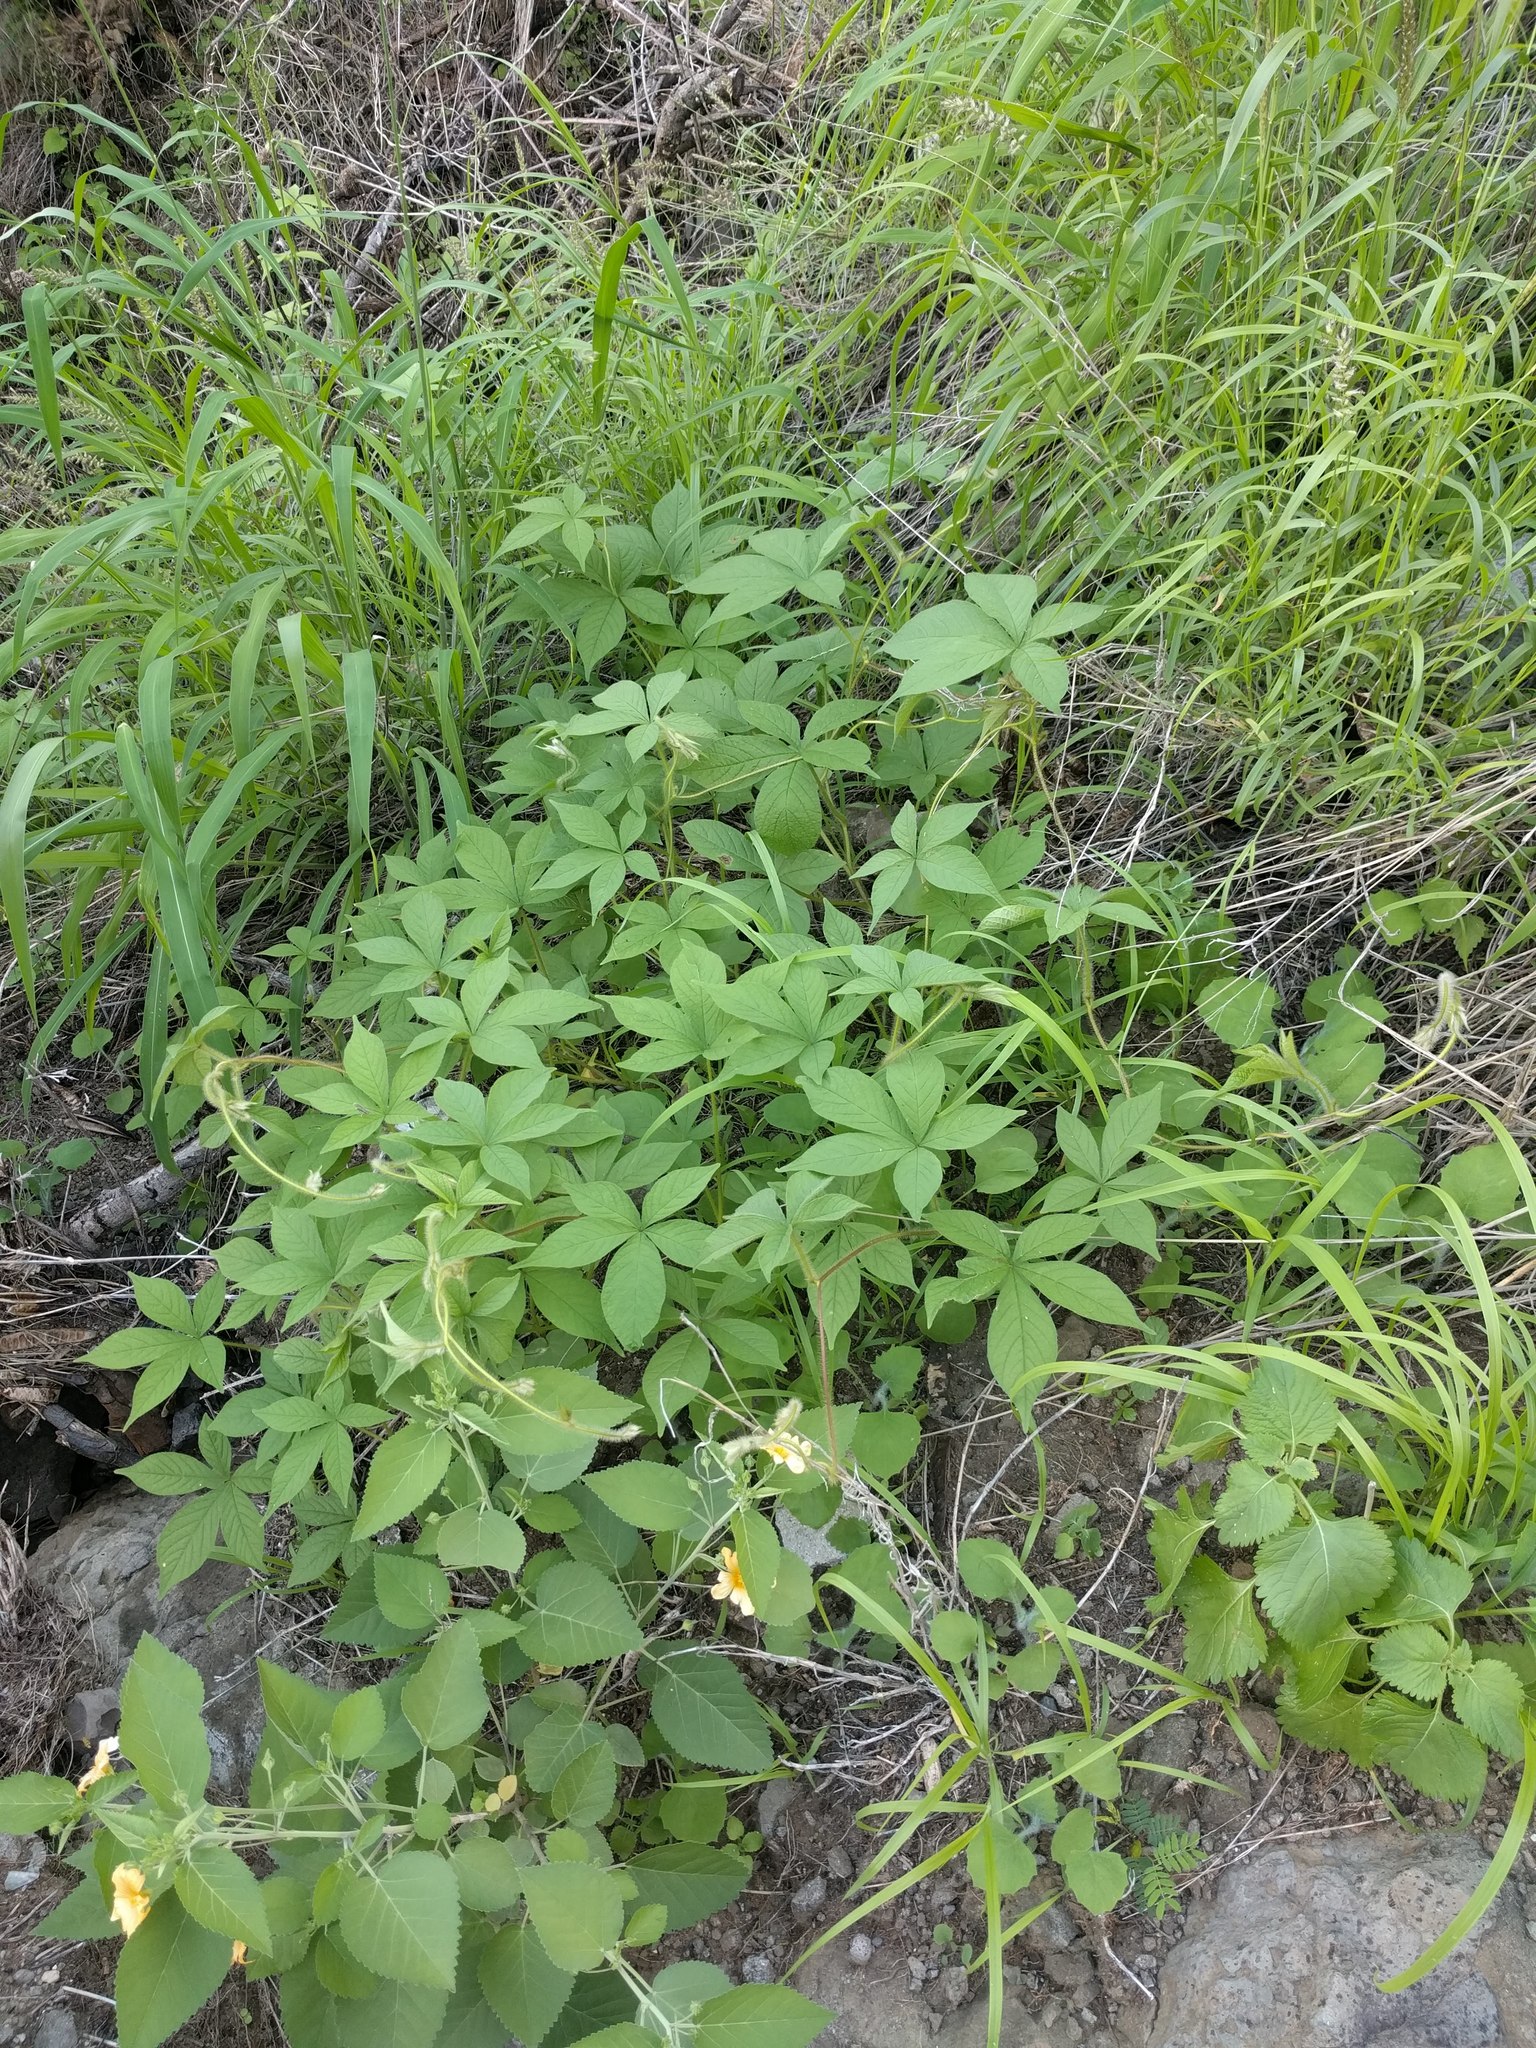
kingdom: Plantae
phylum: Tracheophyta
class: Magnoliopsida
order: Solanales
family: Convolvulaceae
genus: Distimake
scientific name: Distimake aegyptius
